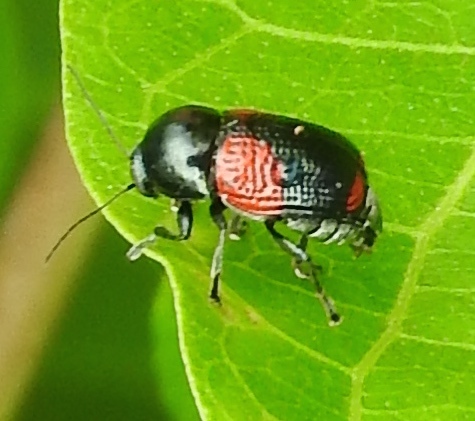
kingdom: Animalia
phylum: Arthropoda
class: Insecta
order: Coleoptera
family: Chrysomelidae
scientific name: Chrysomelidae
